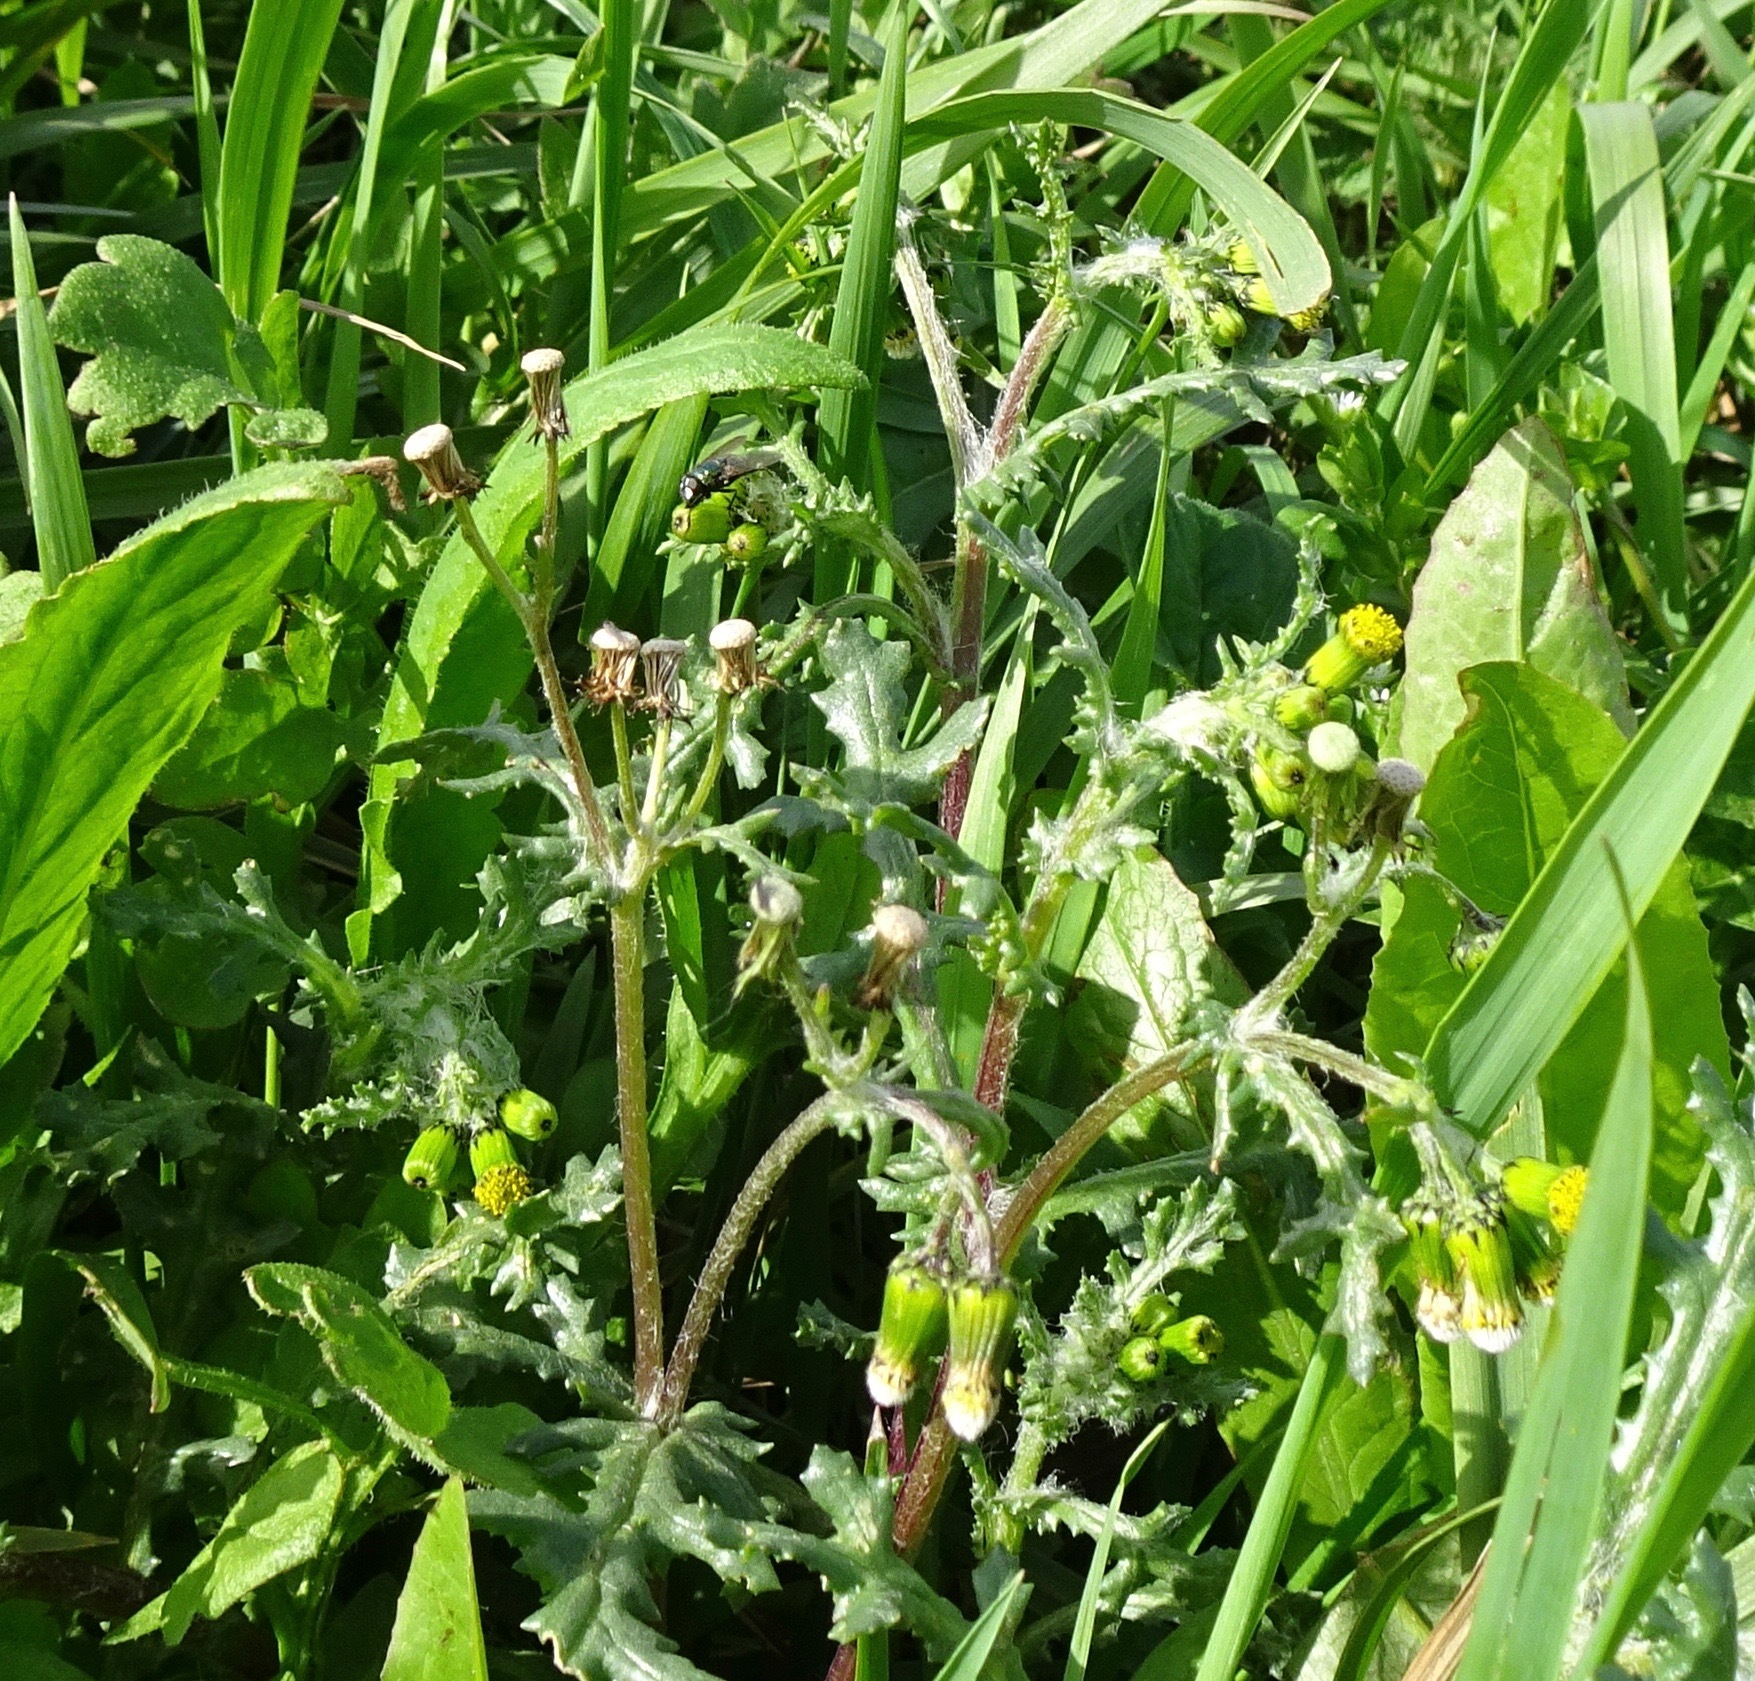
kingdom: Plantae
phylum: Tracheophyta
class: Magnoliopsida
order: Asterales
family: Asteraceae
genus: Senecio
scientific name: Senecio vulgaris
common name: Old-man-in-the-spring
